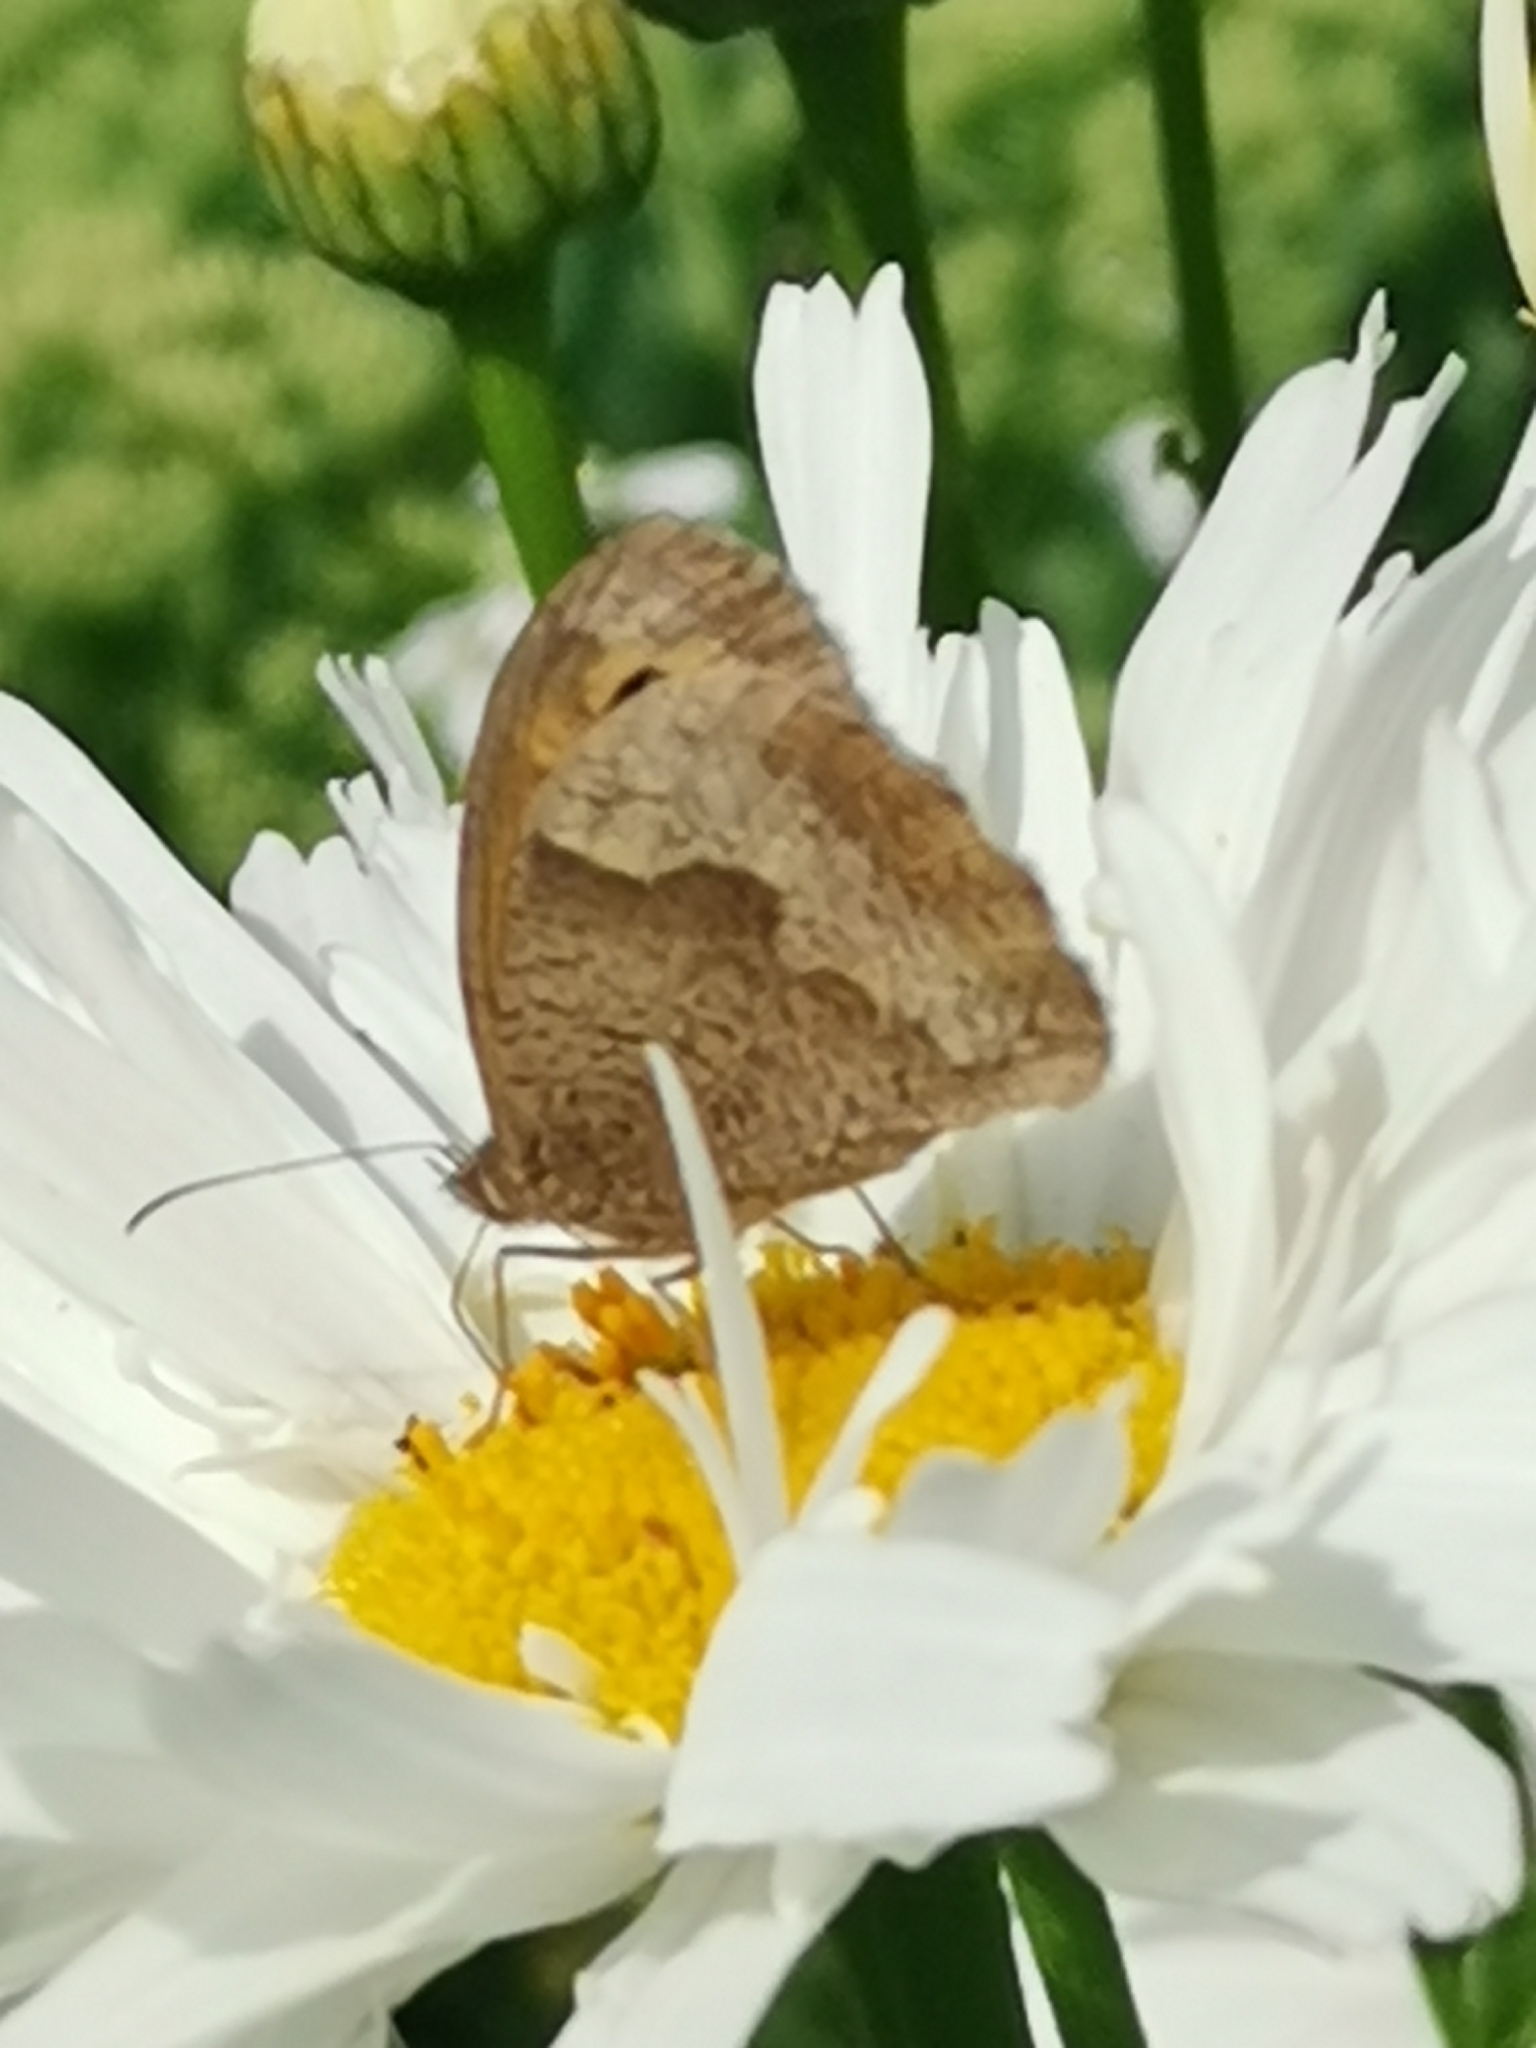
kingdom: Animalia
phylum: Arthropoda
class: Insecta
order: Lepidoptera
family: Nymphalidae
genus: Maniola
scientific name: Maniola jurtina
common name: Meadow brown
